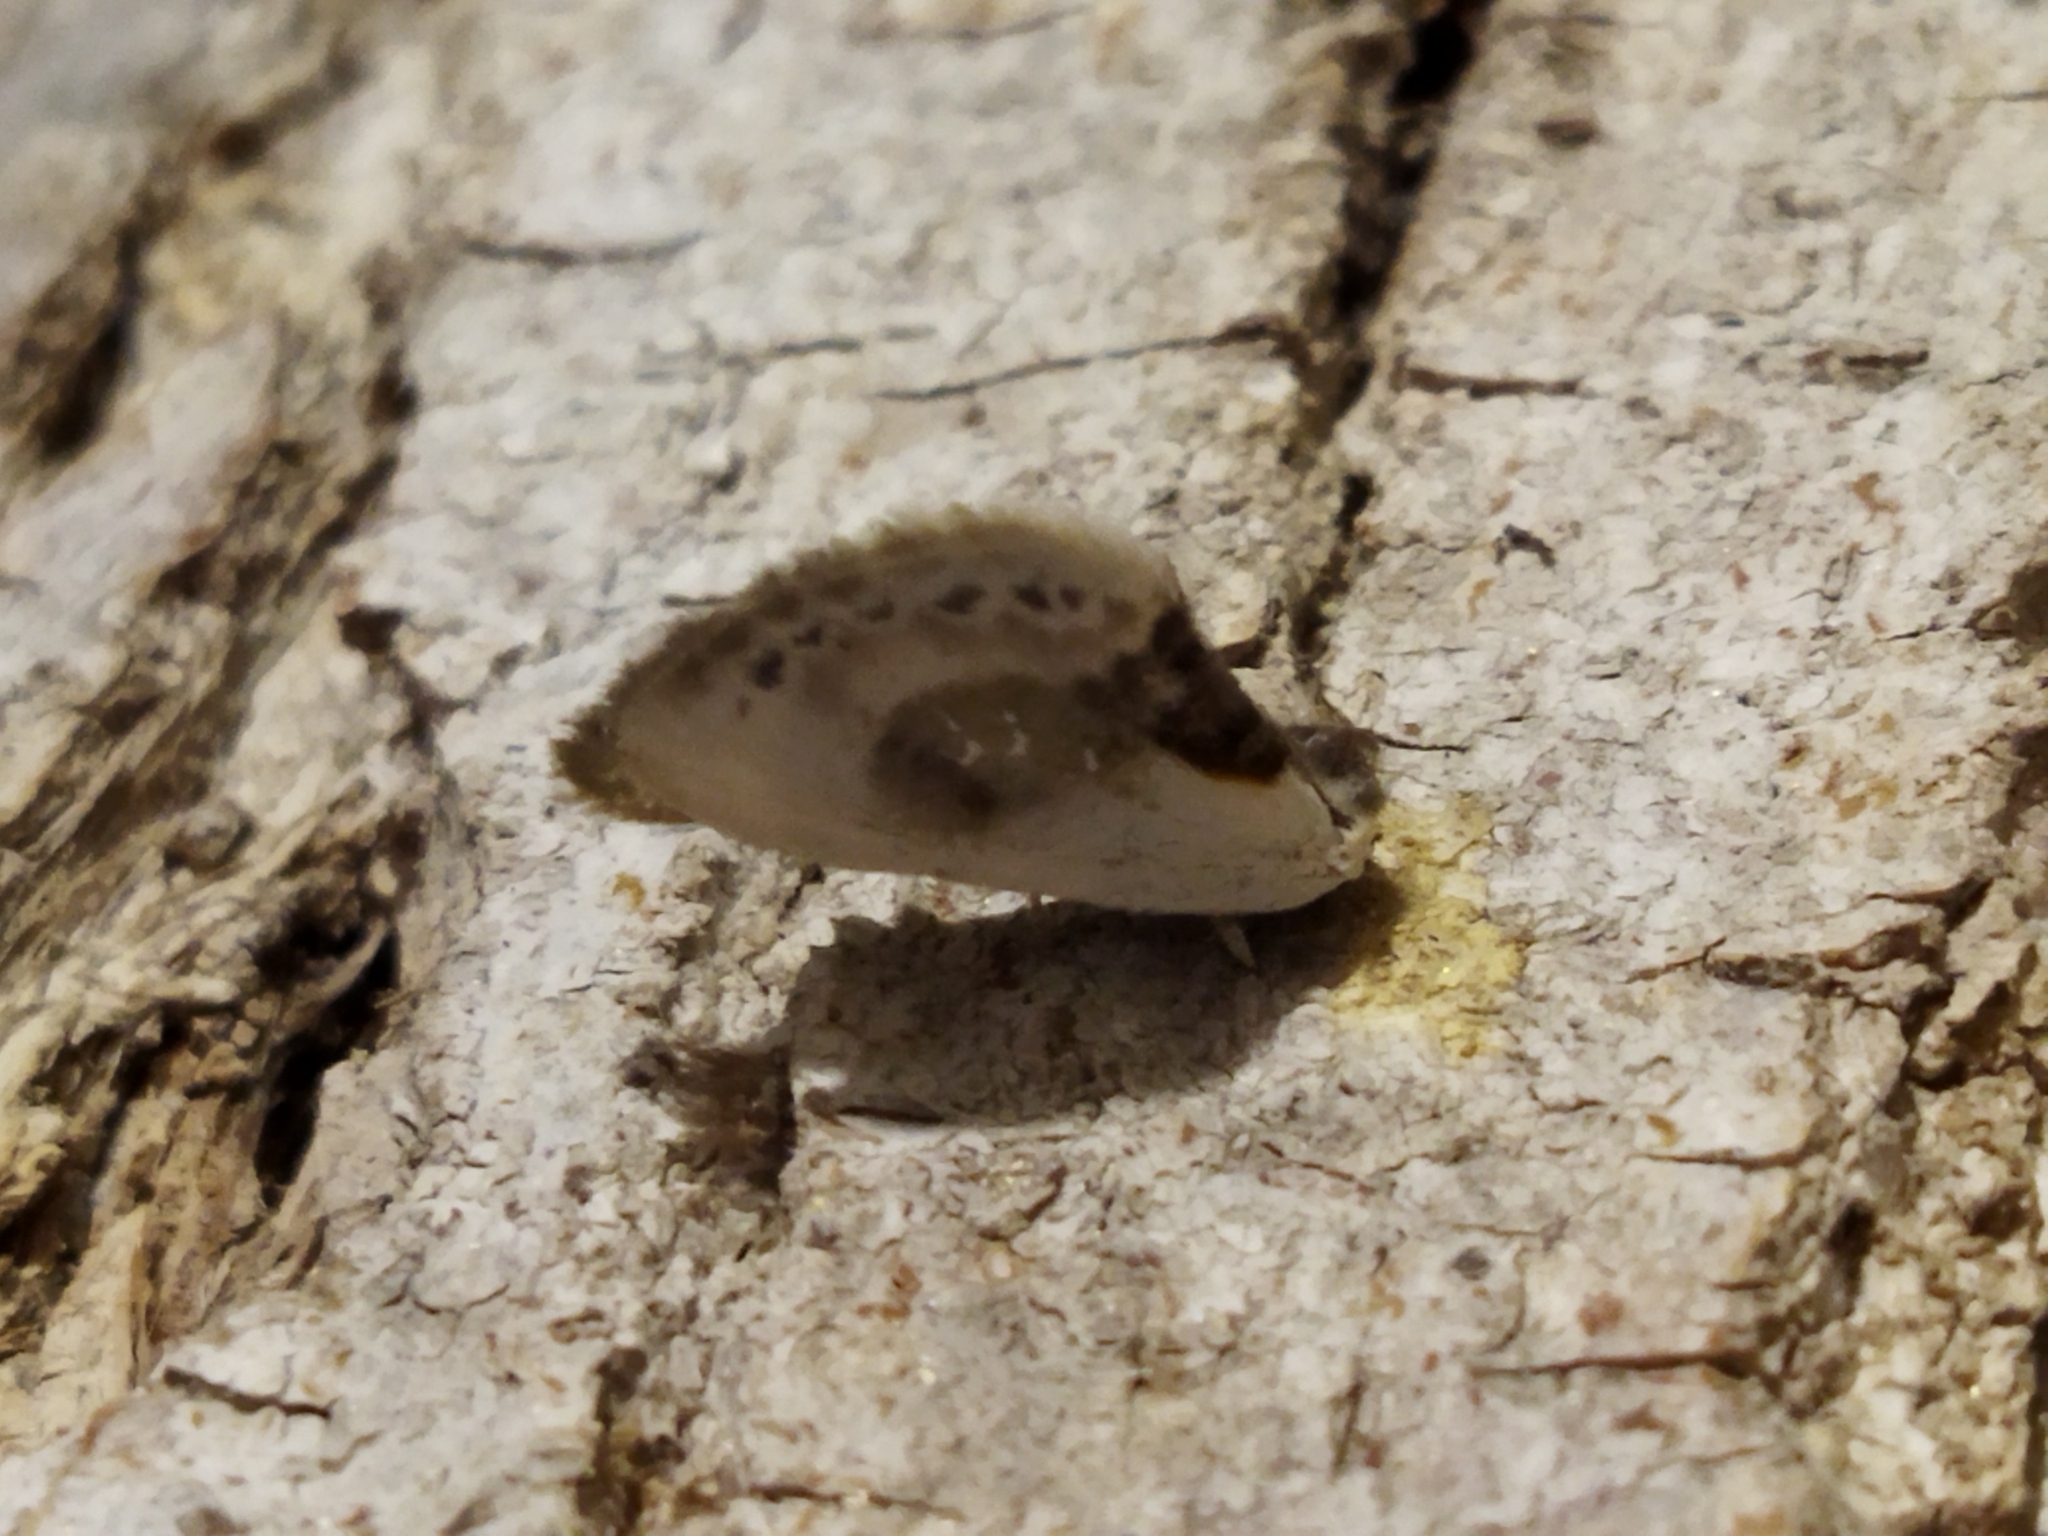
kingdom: Animalia
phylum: Arthropoda
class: Insecta
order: Lepidoptera
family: Drepanidae
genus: Cilix
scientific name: Cilix glaucata
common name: Chinese character
